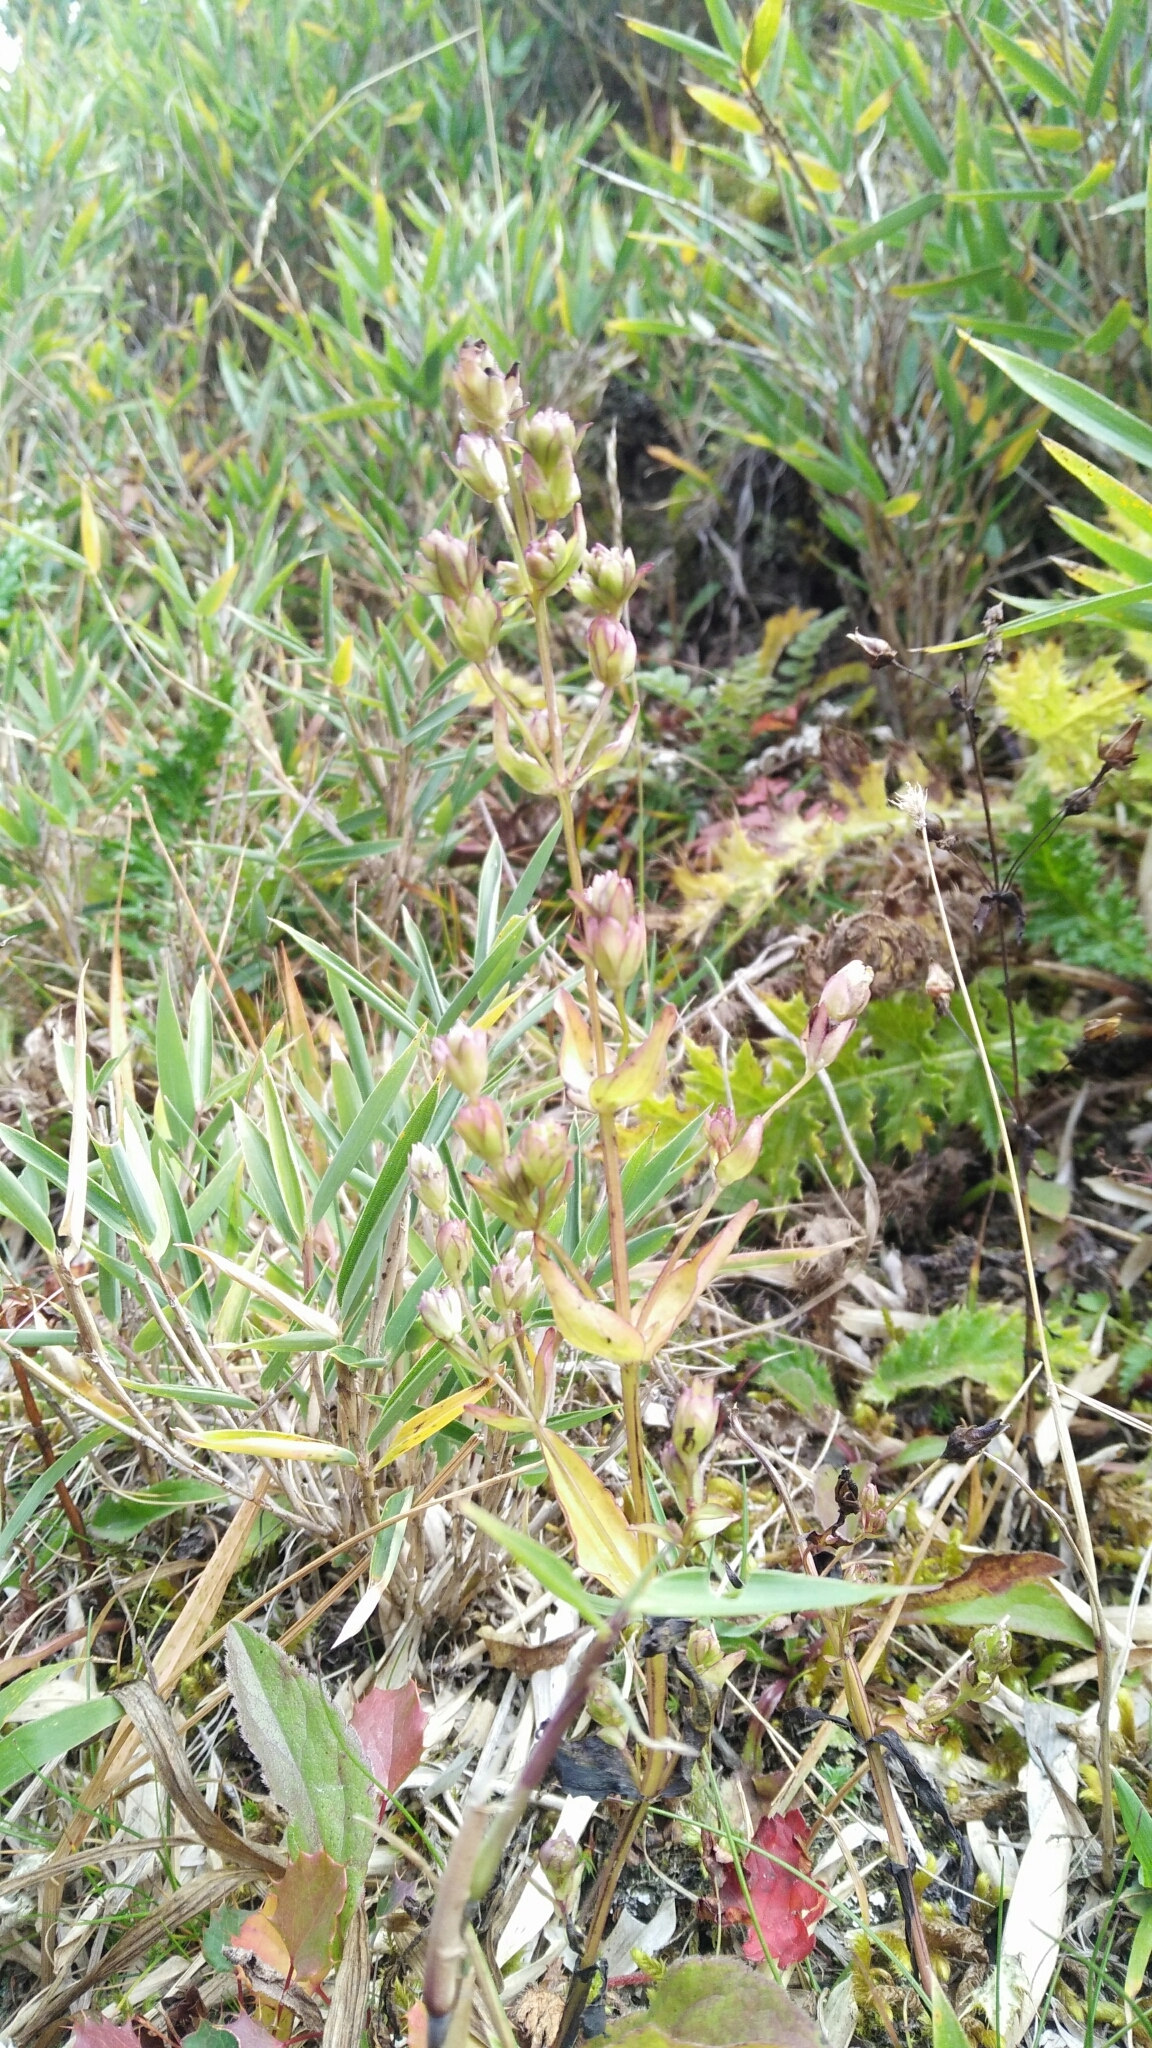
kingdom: Plantae
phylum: Tracheophyta
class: Magnoliopsida
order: Gentianales
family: Gentianaceae
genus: Swertia
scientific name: Swertia macrosperma
